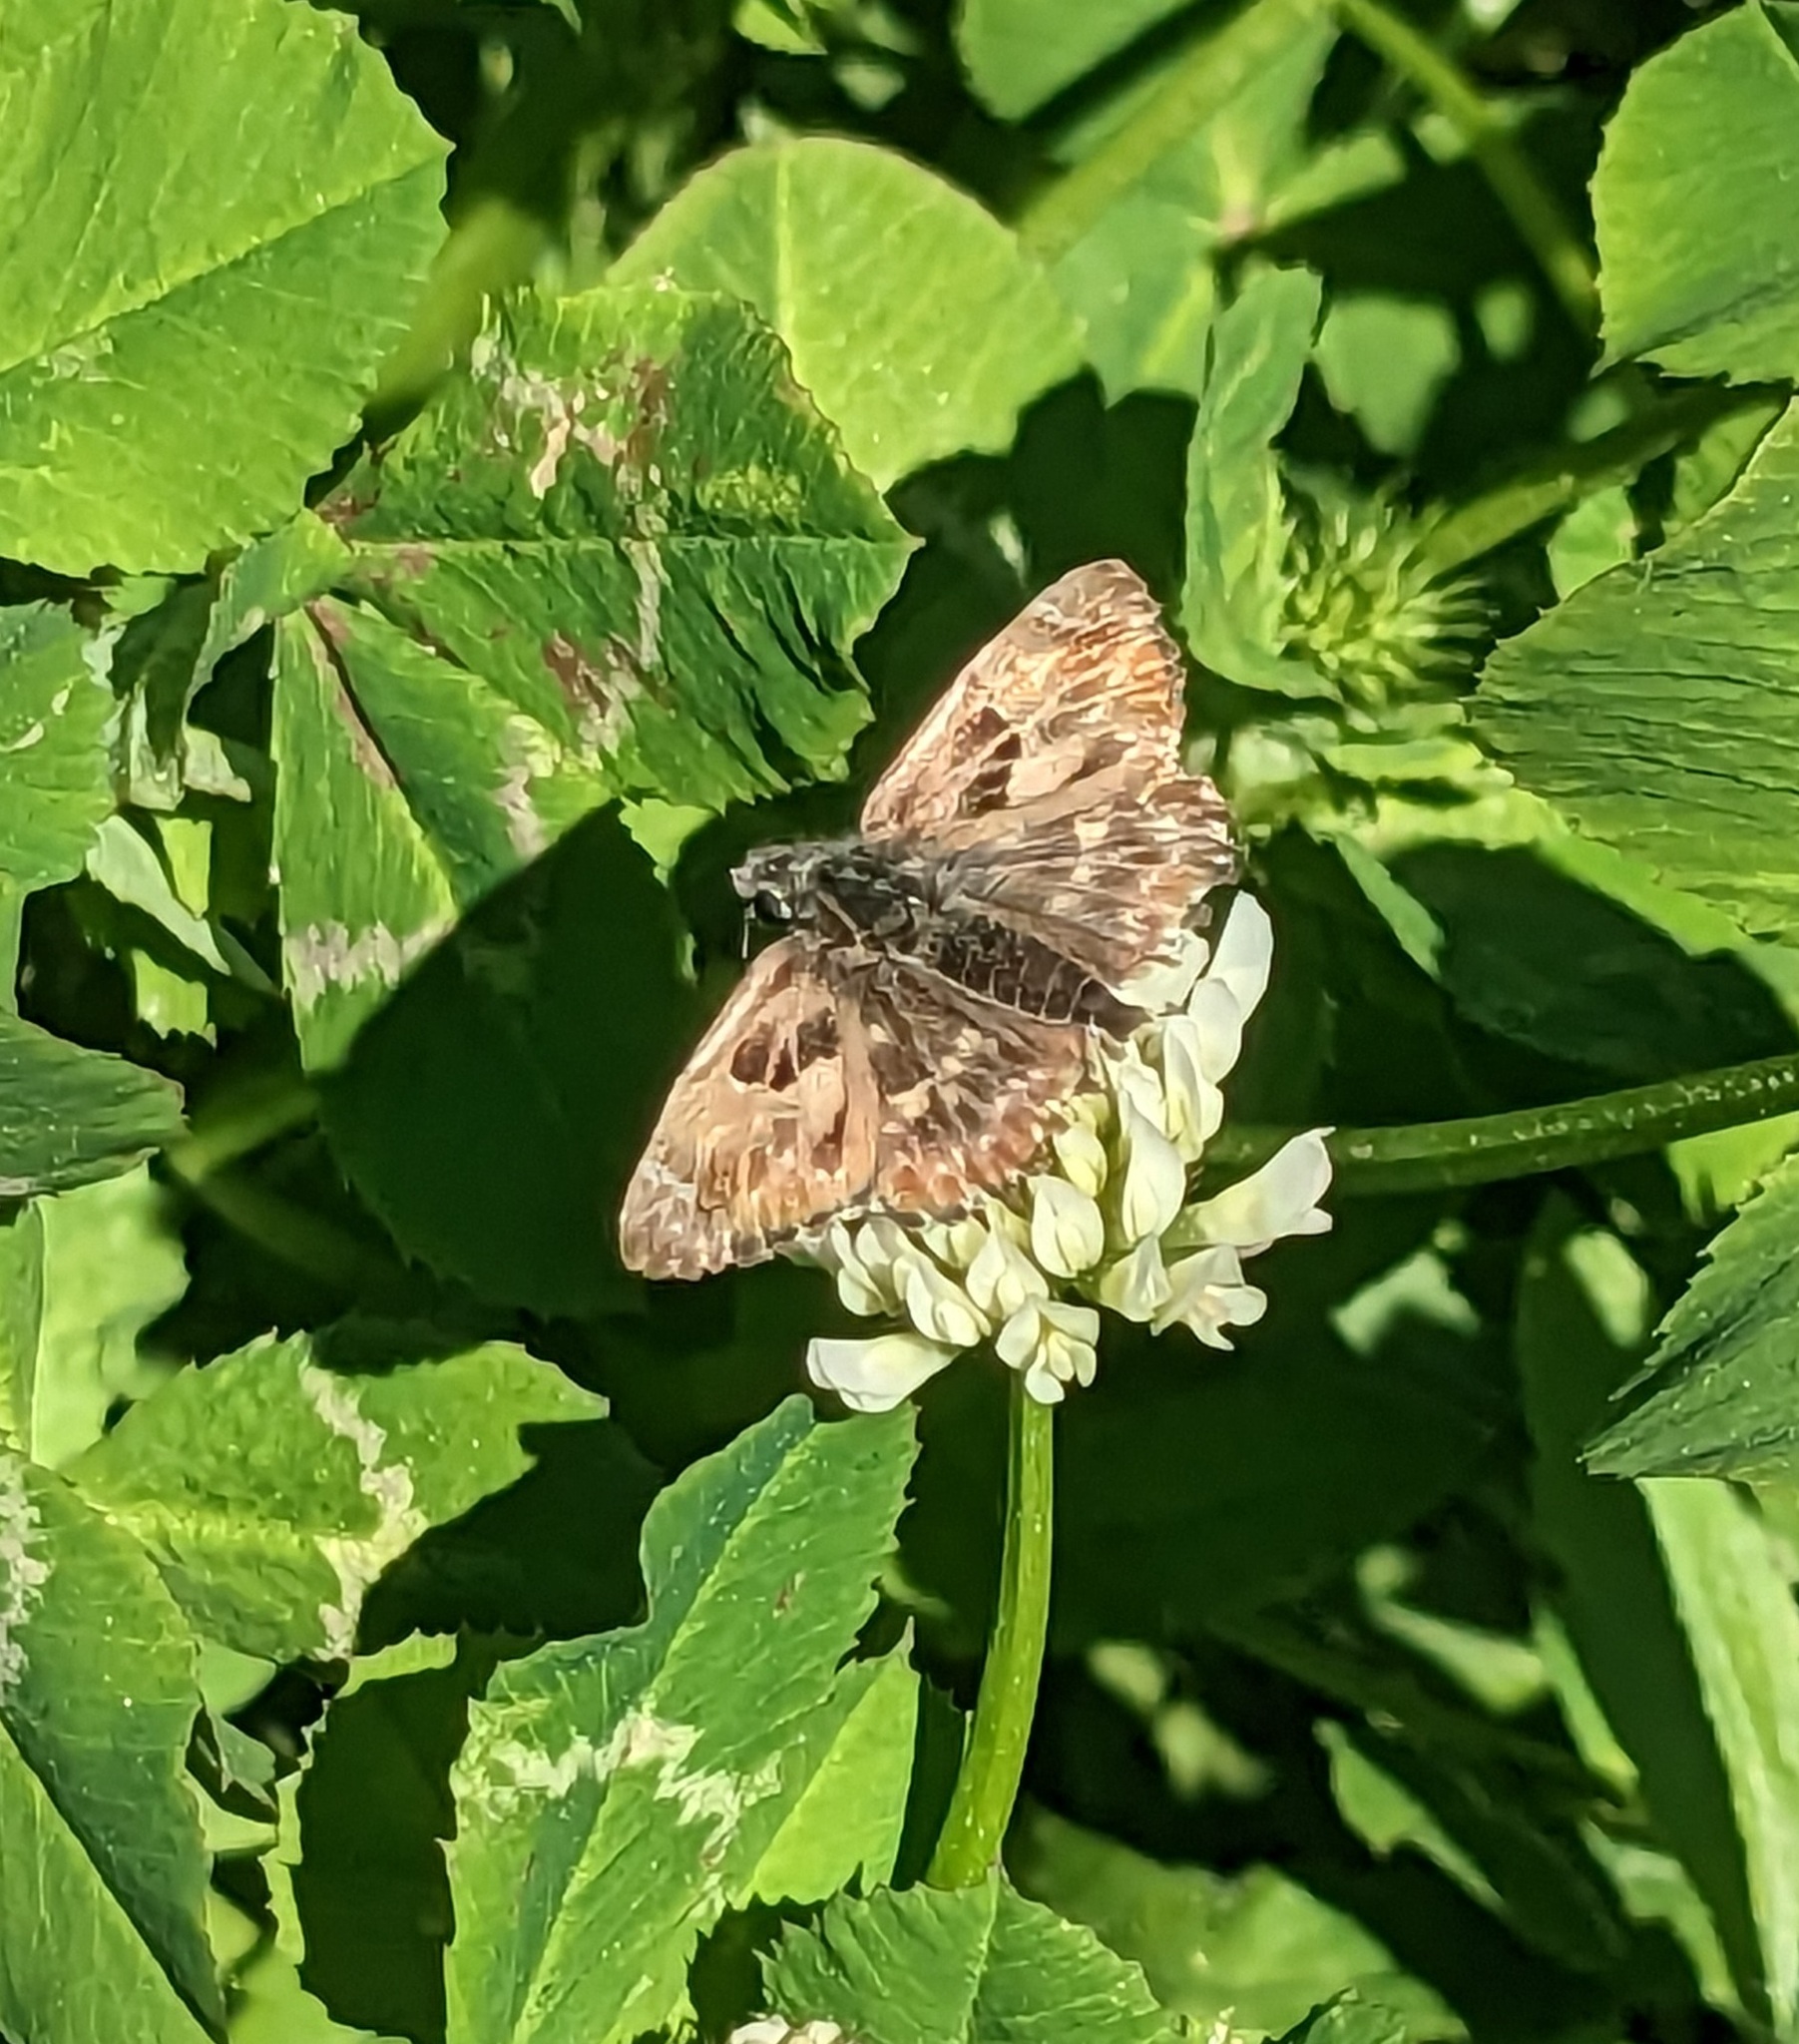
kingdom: Animalia
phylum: Arthropoda
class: Insecta
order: Lepidoptera
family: Hesperiidae
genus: Carcharodus
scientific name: Carcharodus alceae
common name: Mallow skipper
